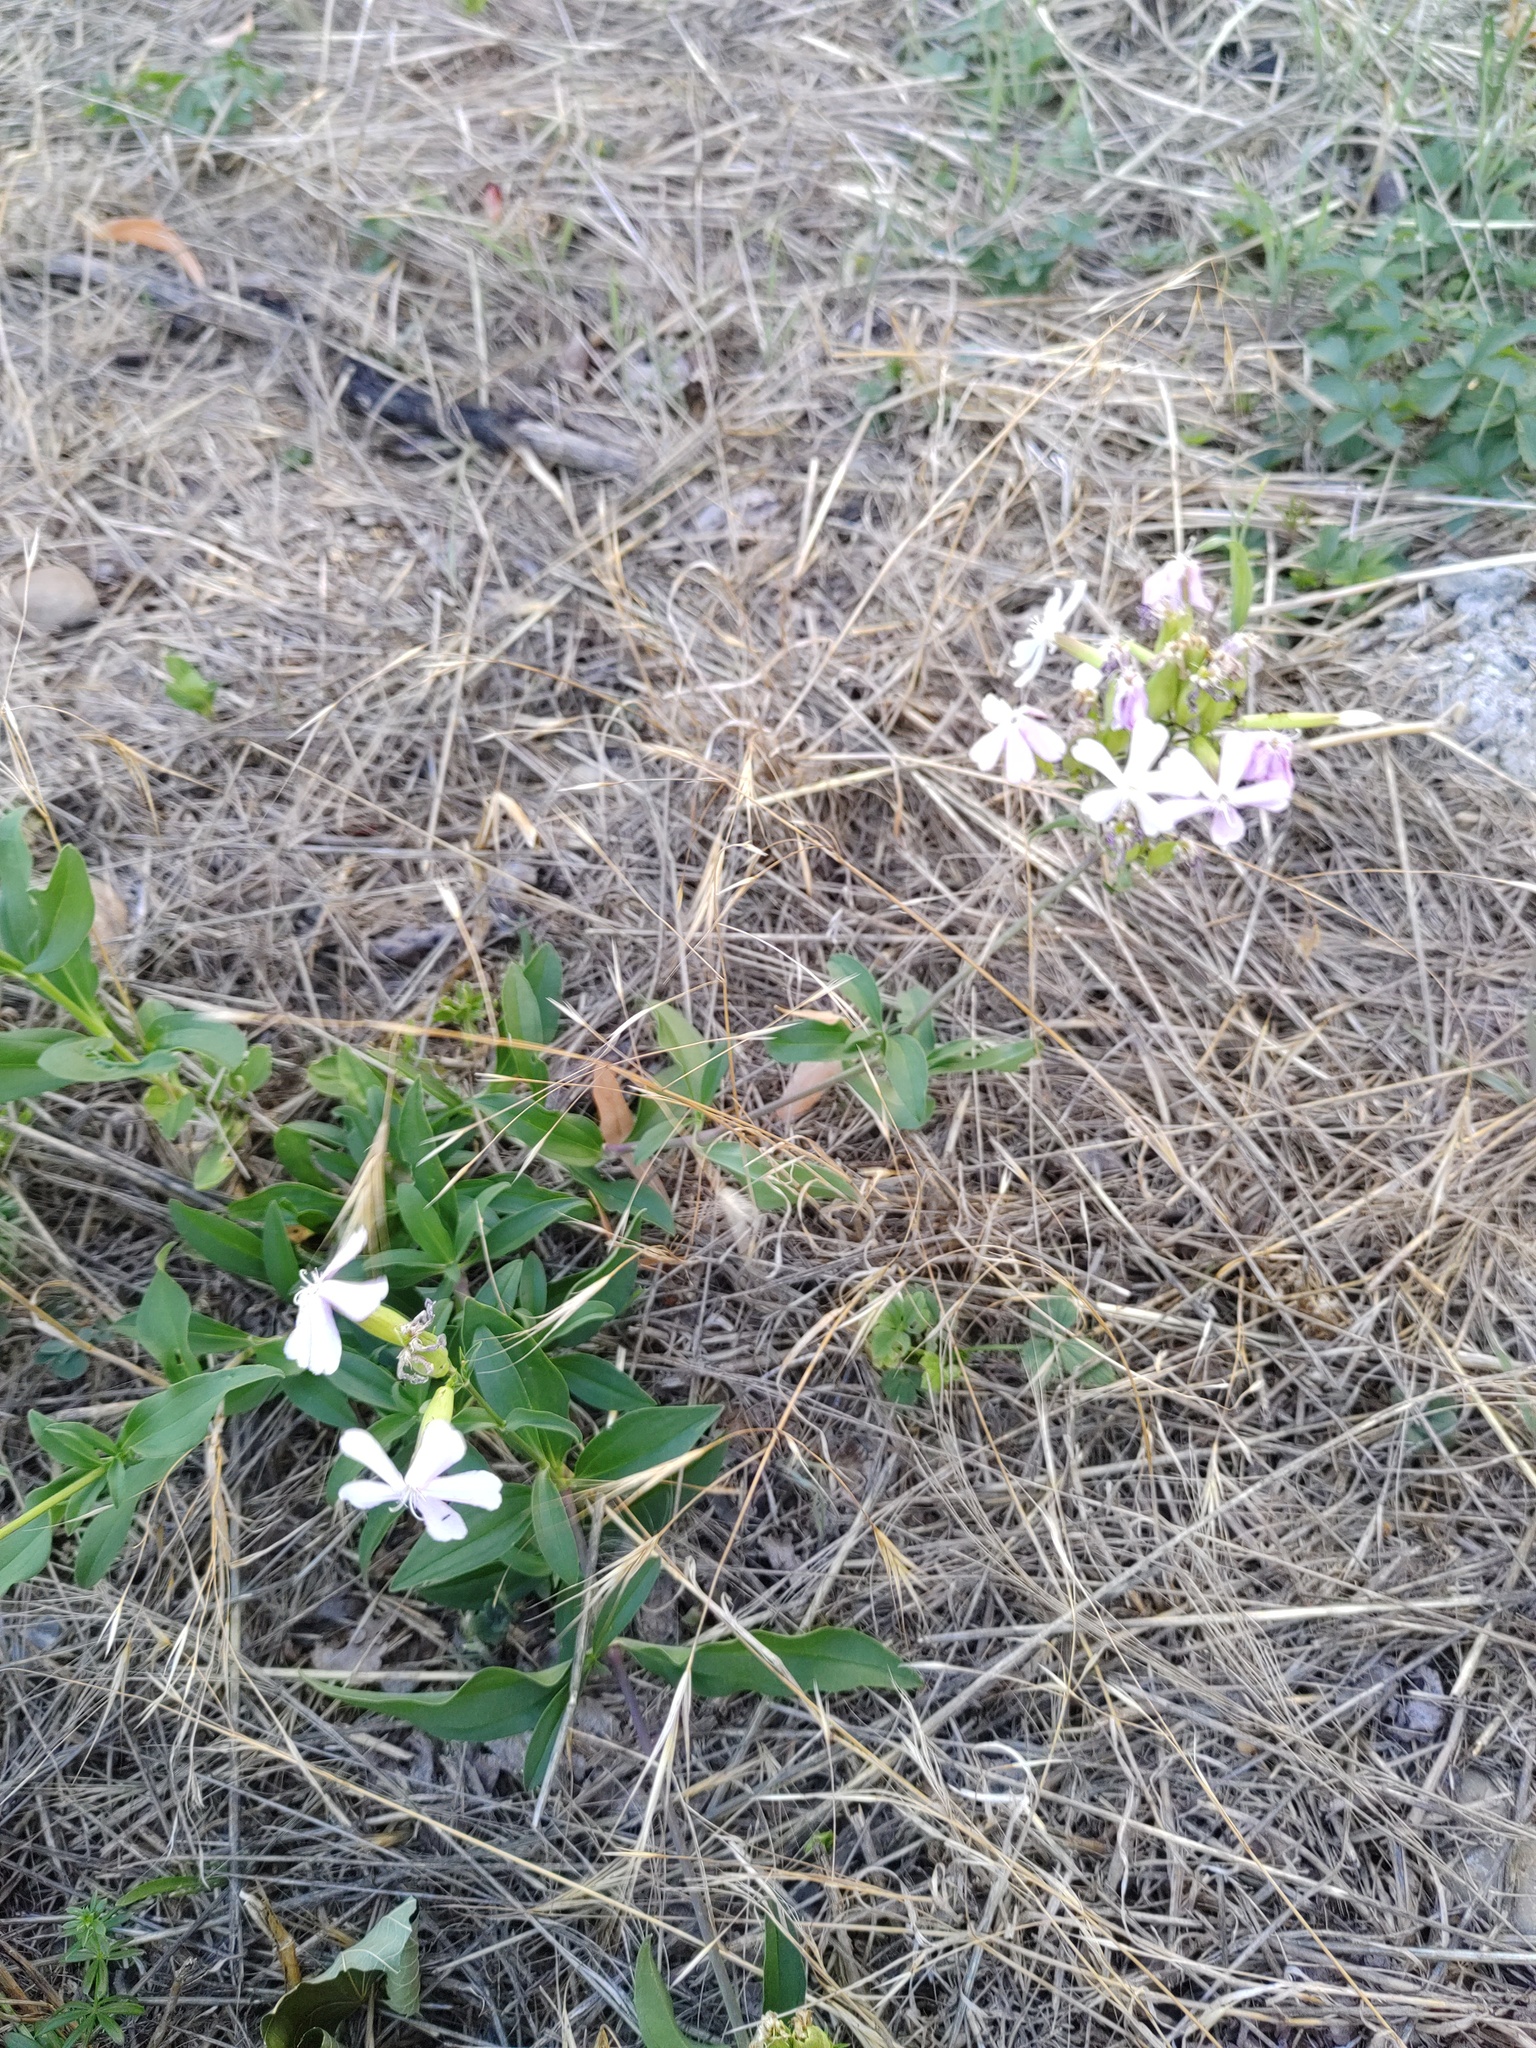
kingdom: Plantae
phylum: Tracheophyta
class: Magnoliopsida
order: Caryophyllales
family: Caryophyllaceae
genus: Saponaria
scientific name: Saponaria officinalis
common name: Soapwort
